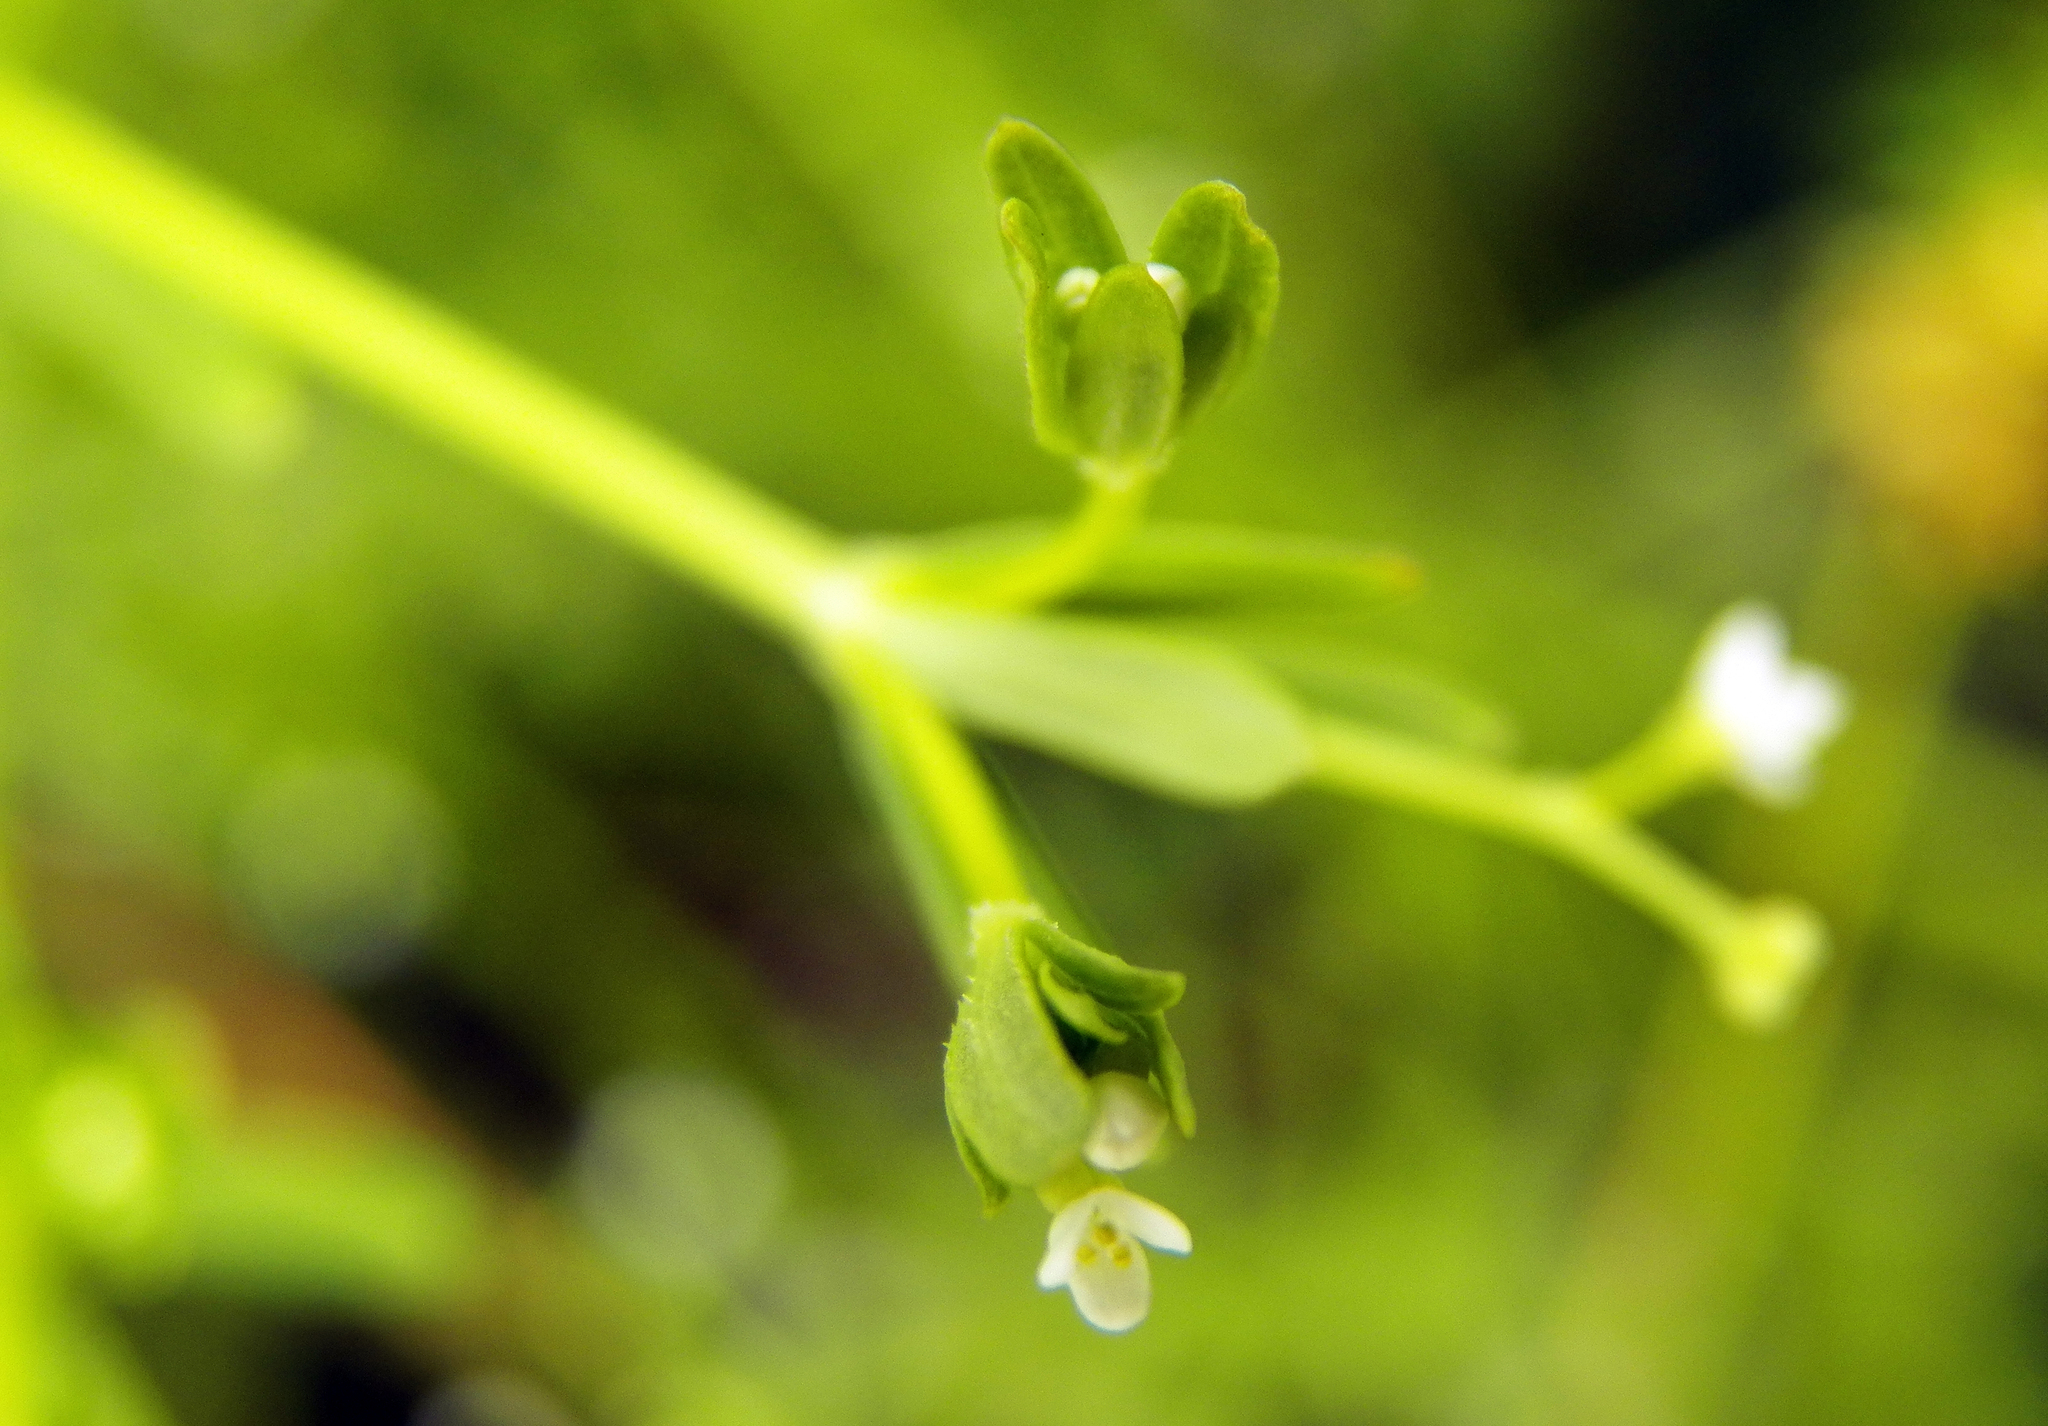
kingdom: Plantae
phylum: Tracheophyta
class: Magnoliopsida
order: Gentianales
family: Rubiaceae
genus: Galium
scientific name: Galium tinctorium
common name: Bedstraw
